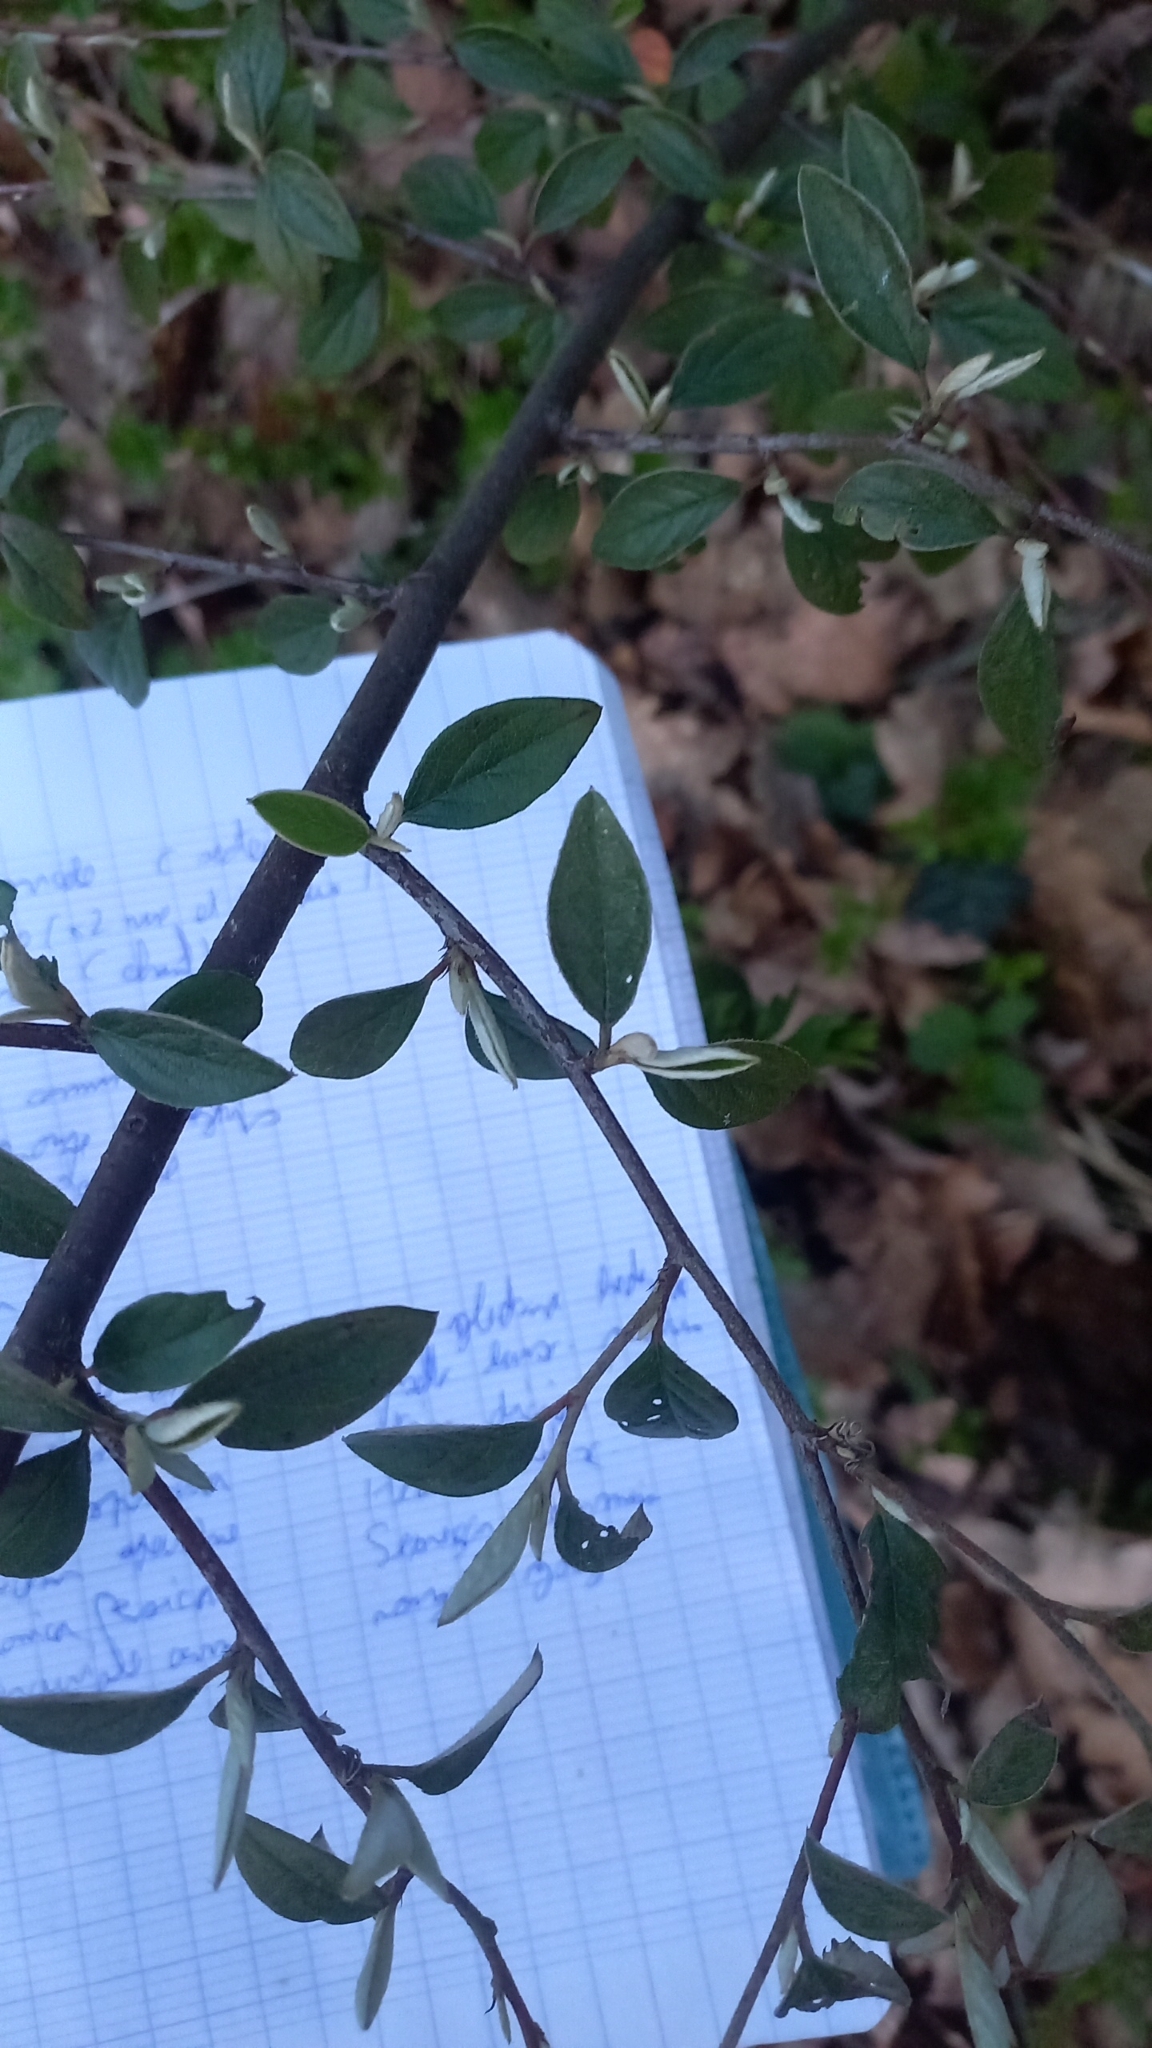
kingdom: Plantae
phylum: Tracheophyta
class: Magnoliopsida
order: Rosales
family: Rosaceae
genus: Cotoneaster
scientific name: Cotoneaster franchetii
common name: Franchet's cotoneaster
